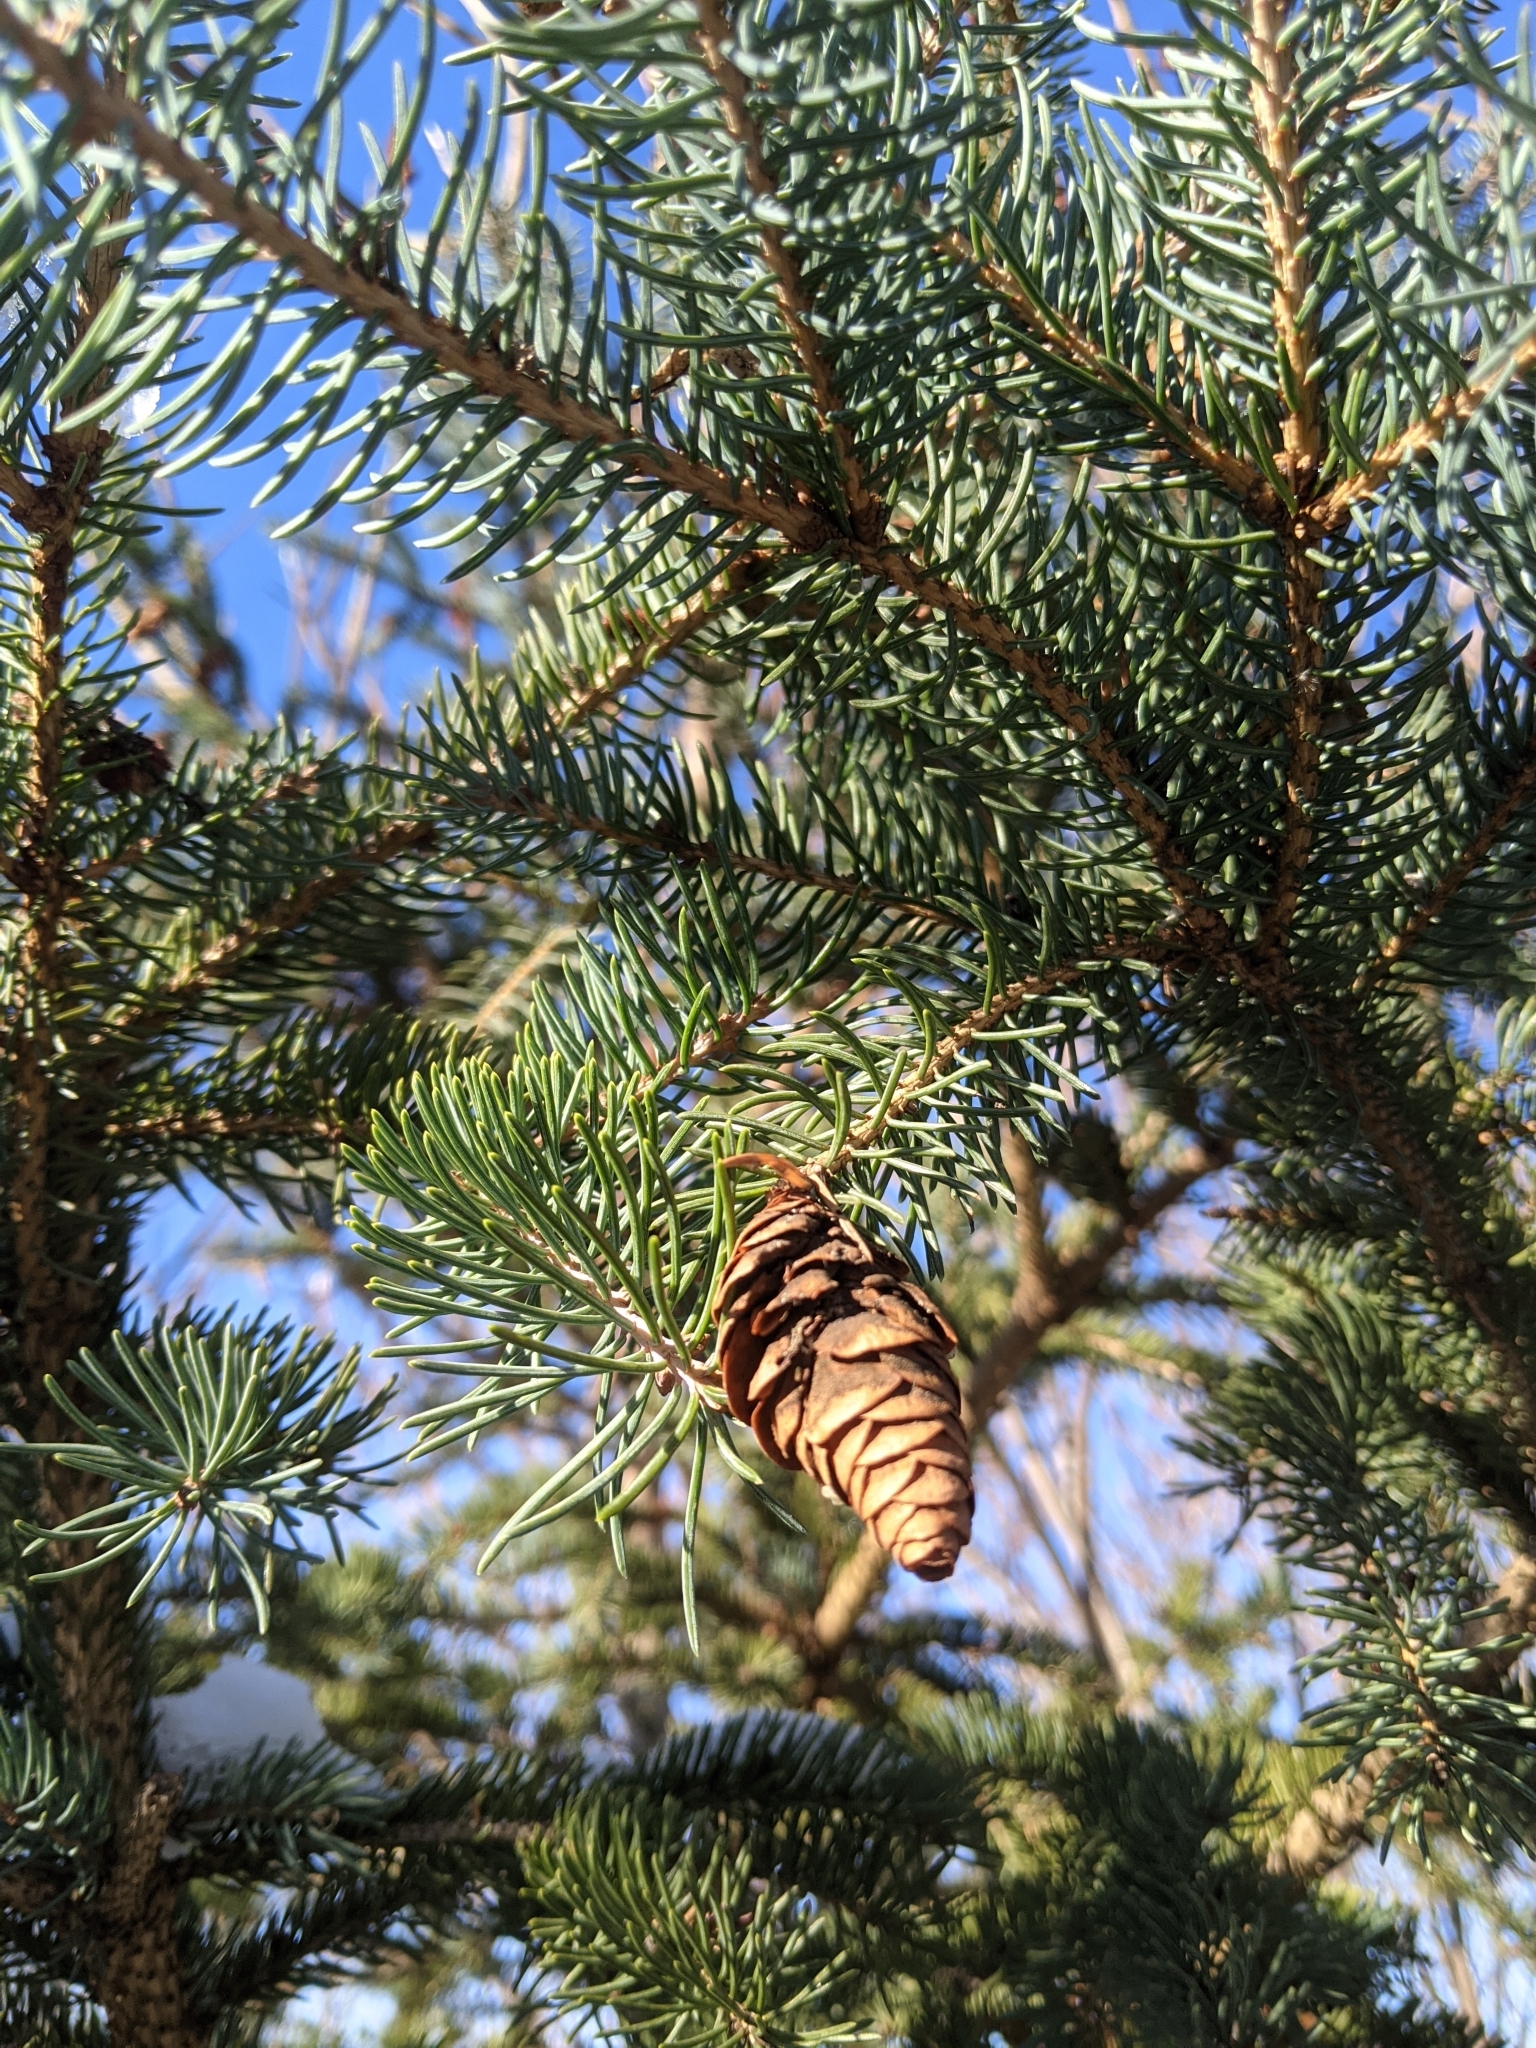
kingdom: Plantae
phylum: Tracheophyta
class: Pinopsida
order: Pinales
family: Pinaceae
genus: Picea
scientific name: Picea glauca
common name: White spruce
